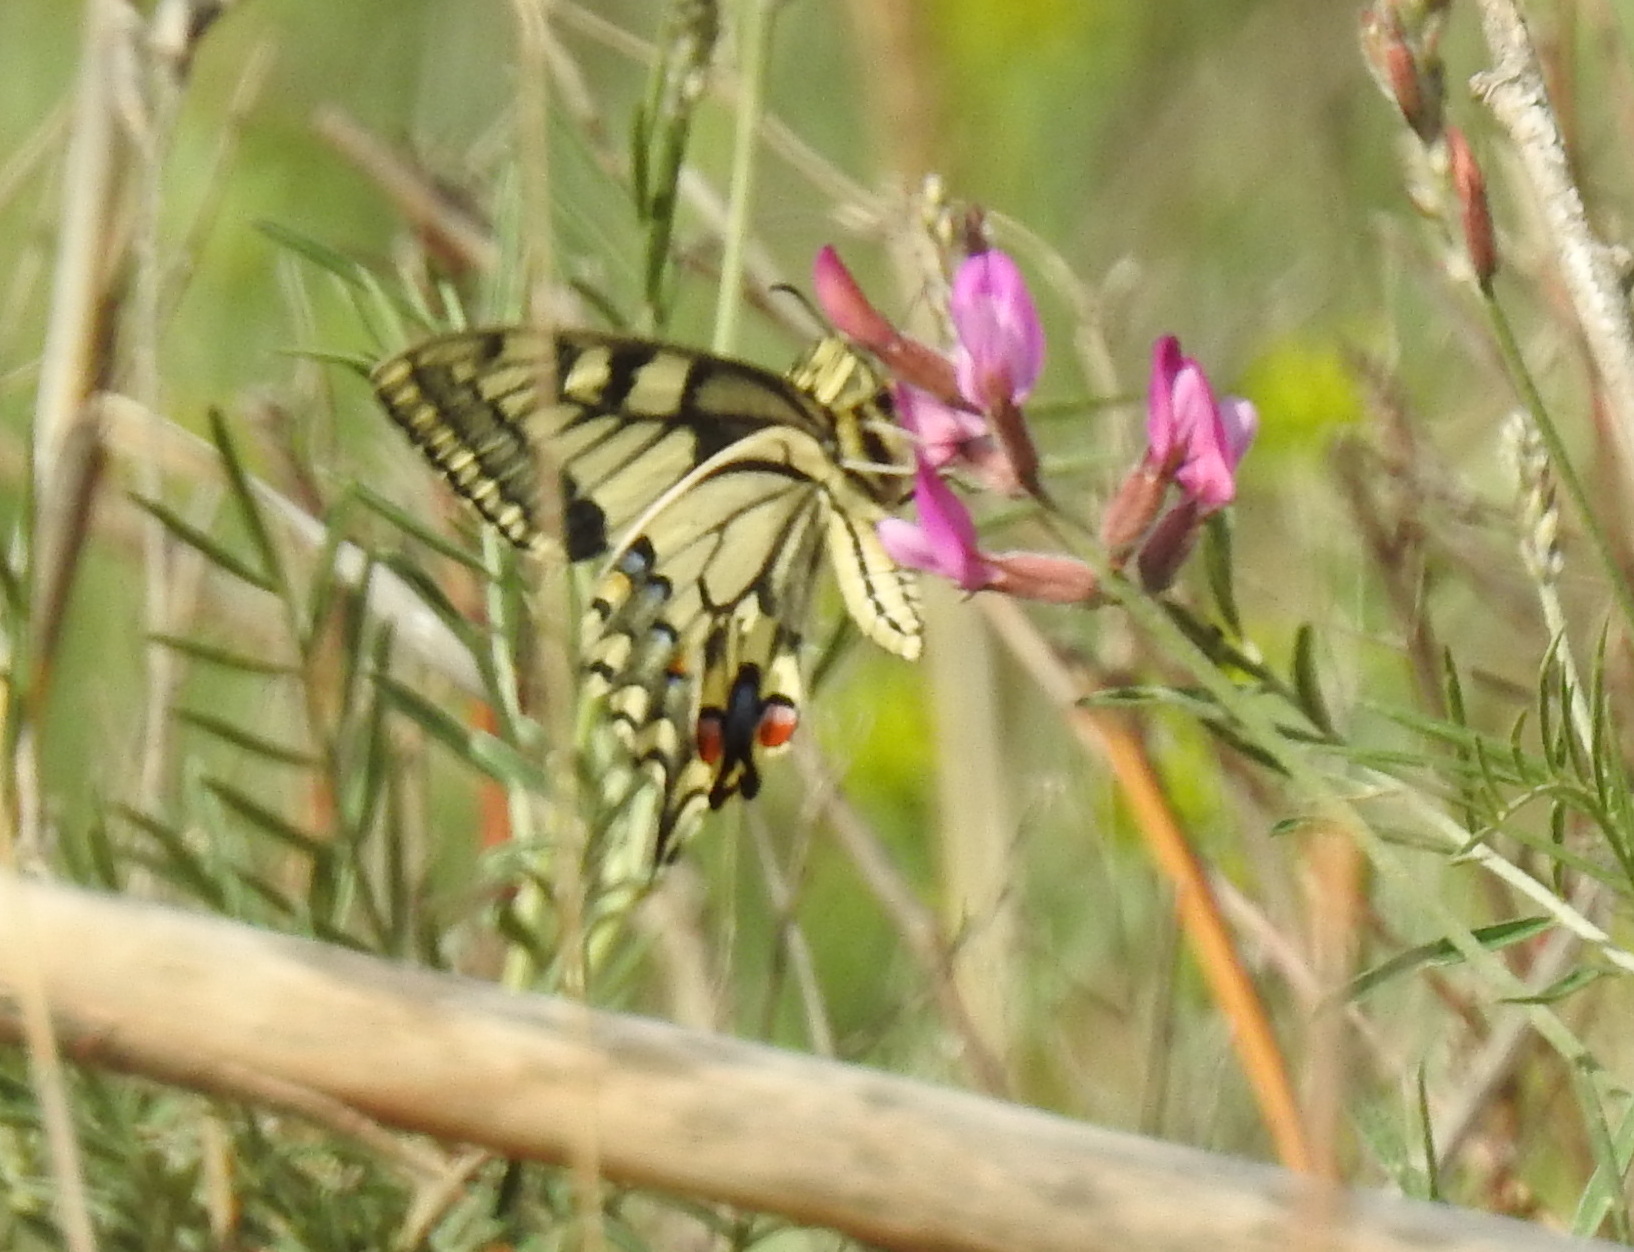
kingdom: Animalia
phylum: Arthropoda
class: Insecta
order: Lepidoptera
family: Papilionidae
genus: Papilio
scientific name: Papilio machaon
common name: Swallowtail
